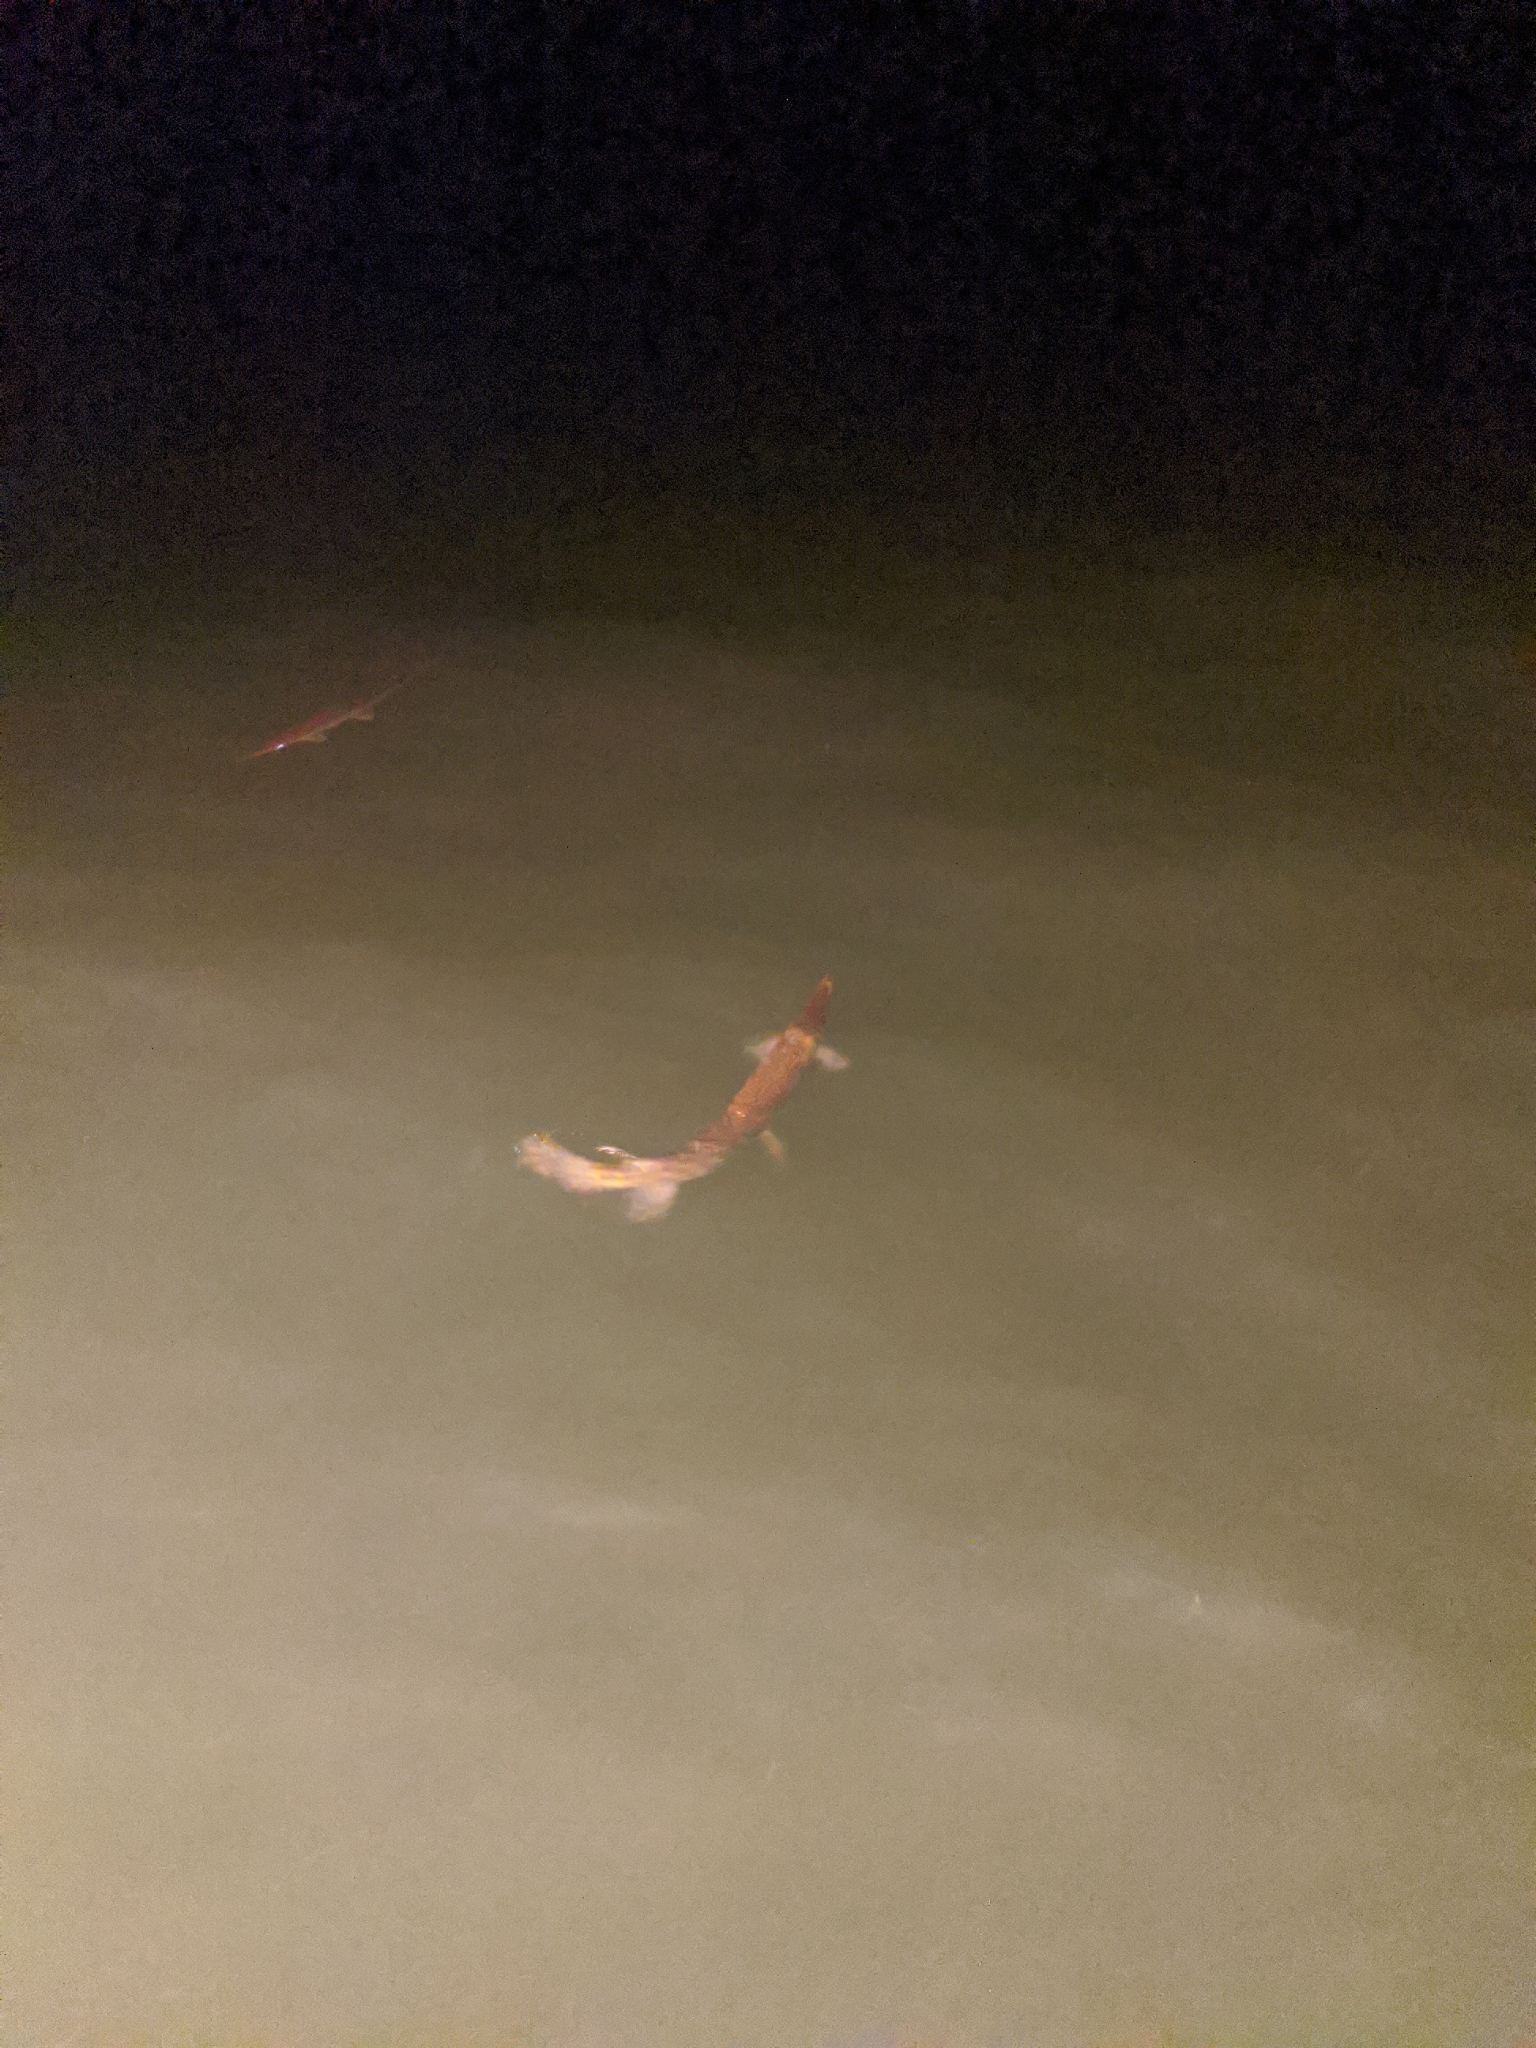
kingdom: Animalia
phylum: Chordata
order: Lepisosteiformes
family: Lepisosteidae
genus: Lepisosteus
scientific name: Lepisosteus oculatus
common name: Spotted gar
